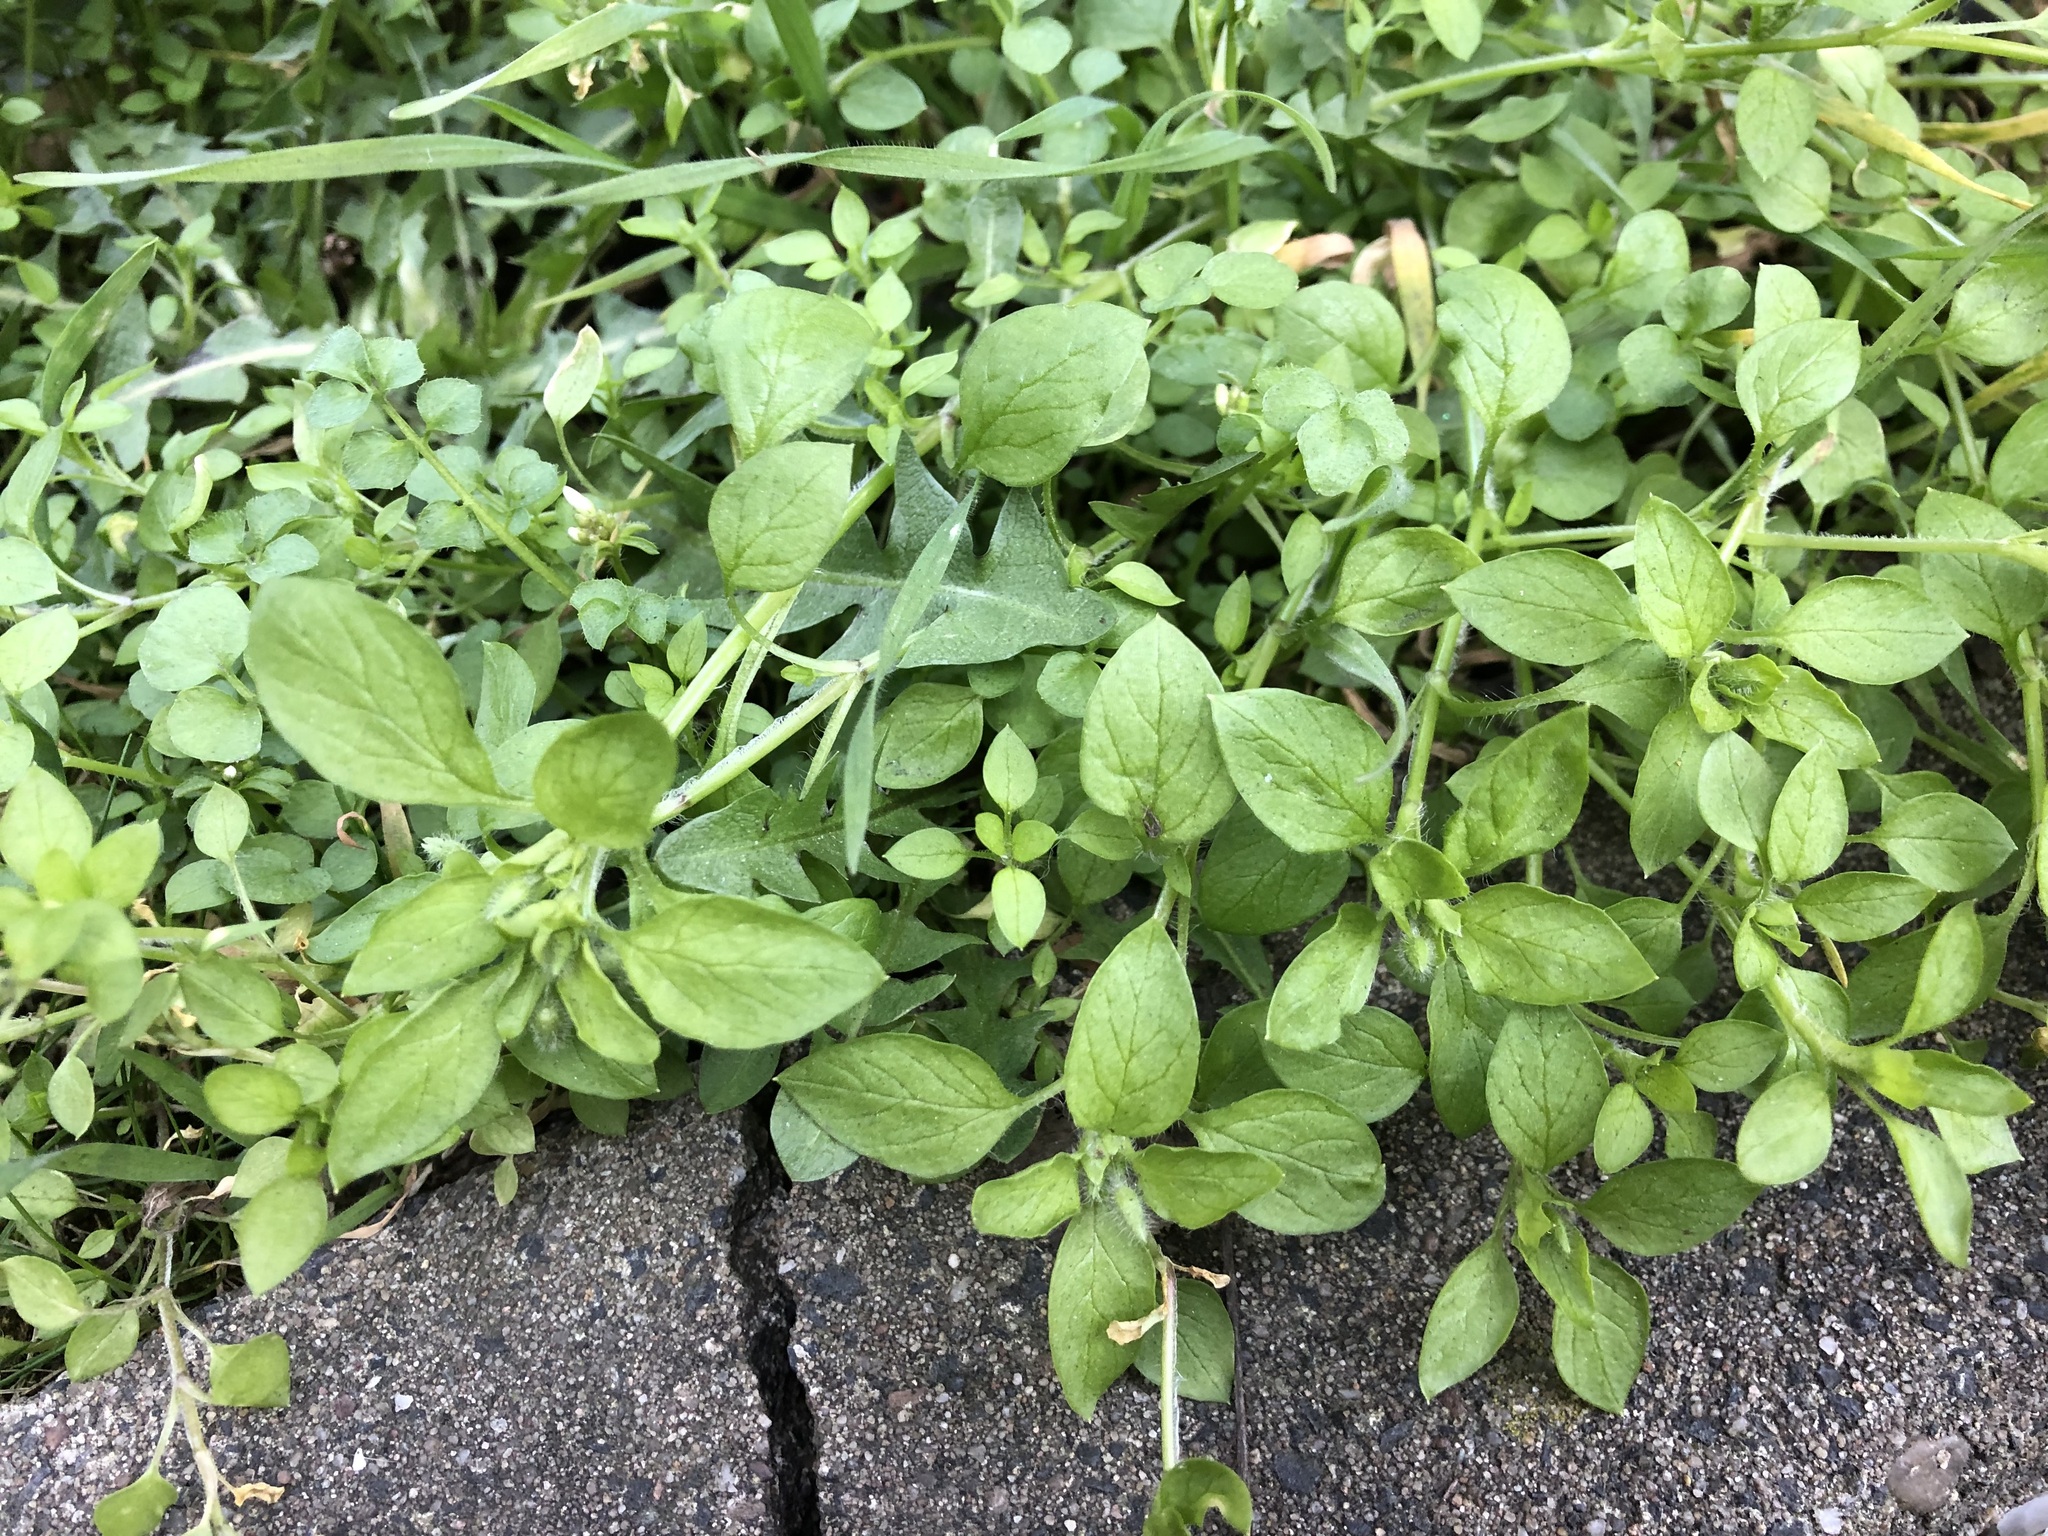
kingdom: Plantae
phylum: Tracheophyta
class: Magnoliopsida
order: Caryophyllales
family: Caryophyllaceae
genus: Stellaria
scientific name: Stellaria media
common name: Common chickweed
